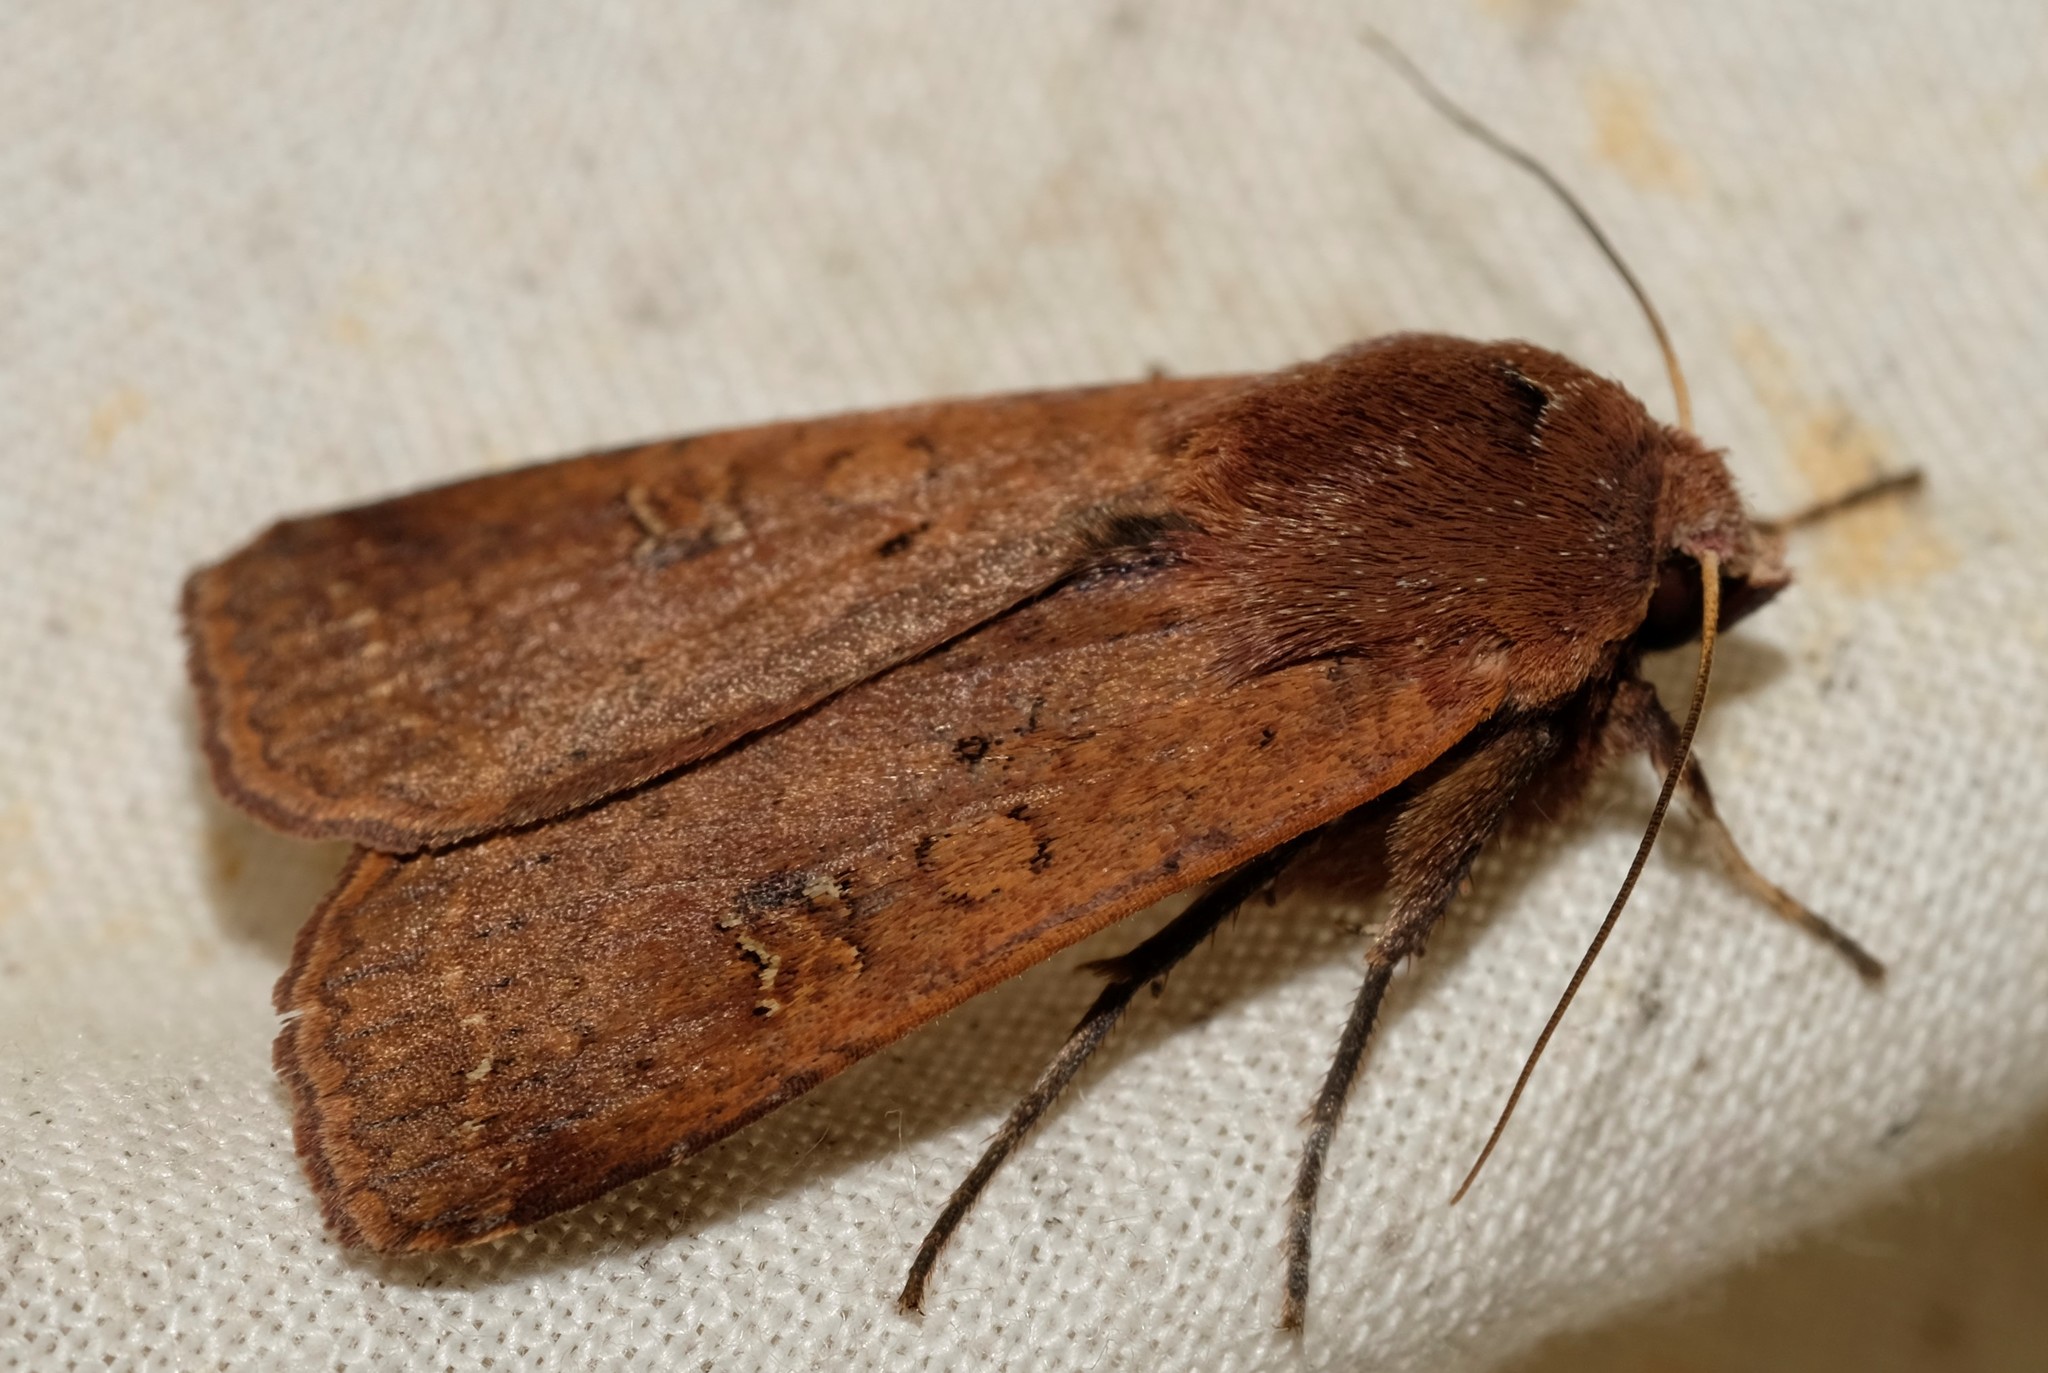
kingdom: Animalia
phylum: Arthropoda
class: Insecta
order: Lepidoptera
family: Noctuidae
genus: Diarsia
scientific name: Diarsia intermixta
